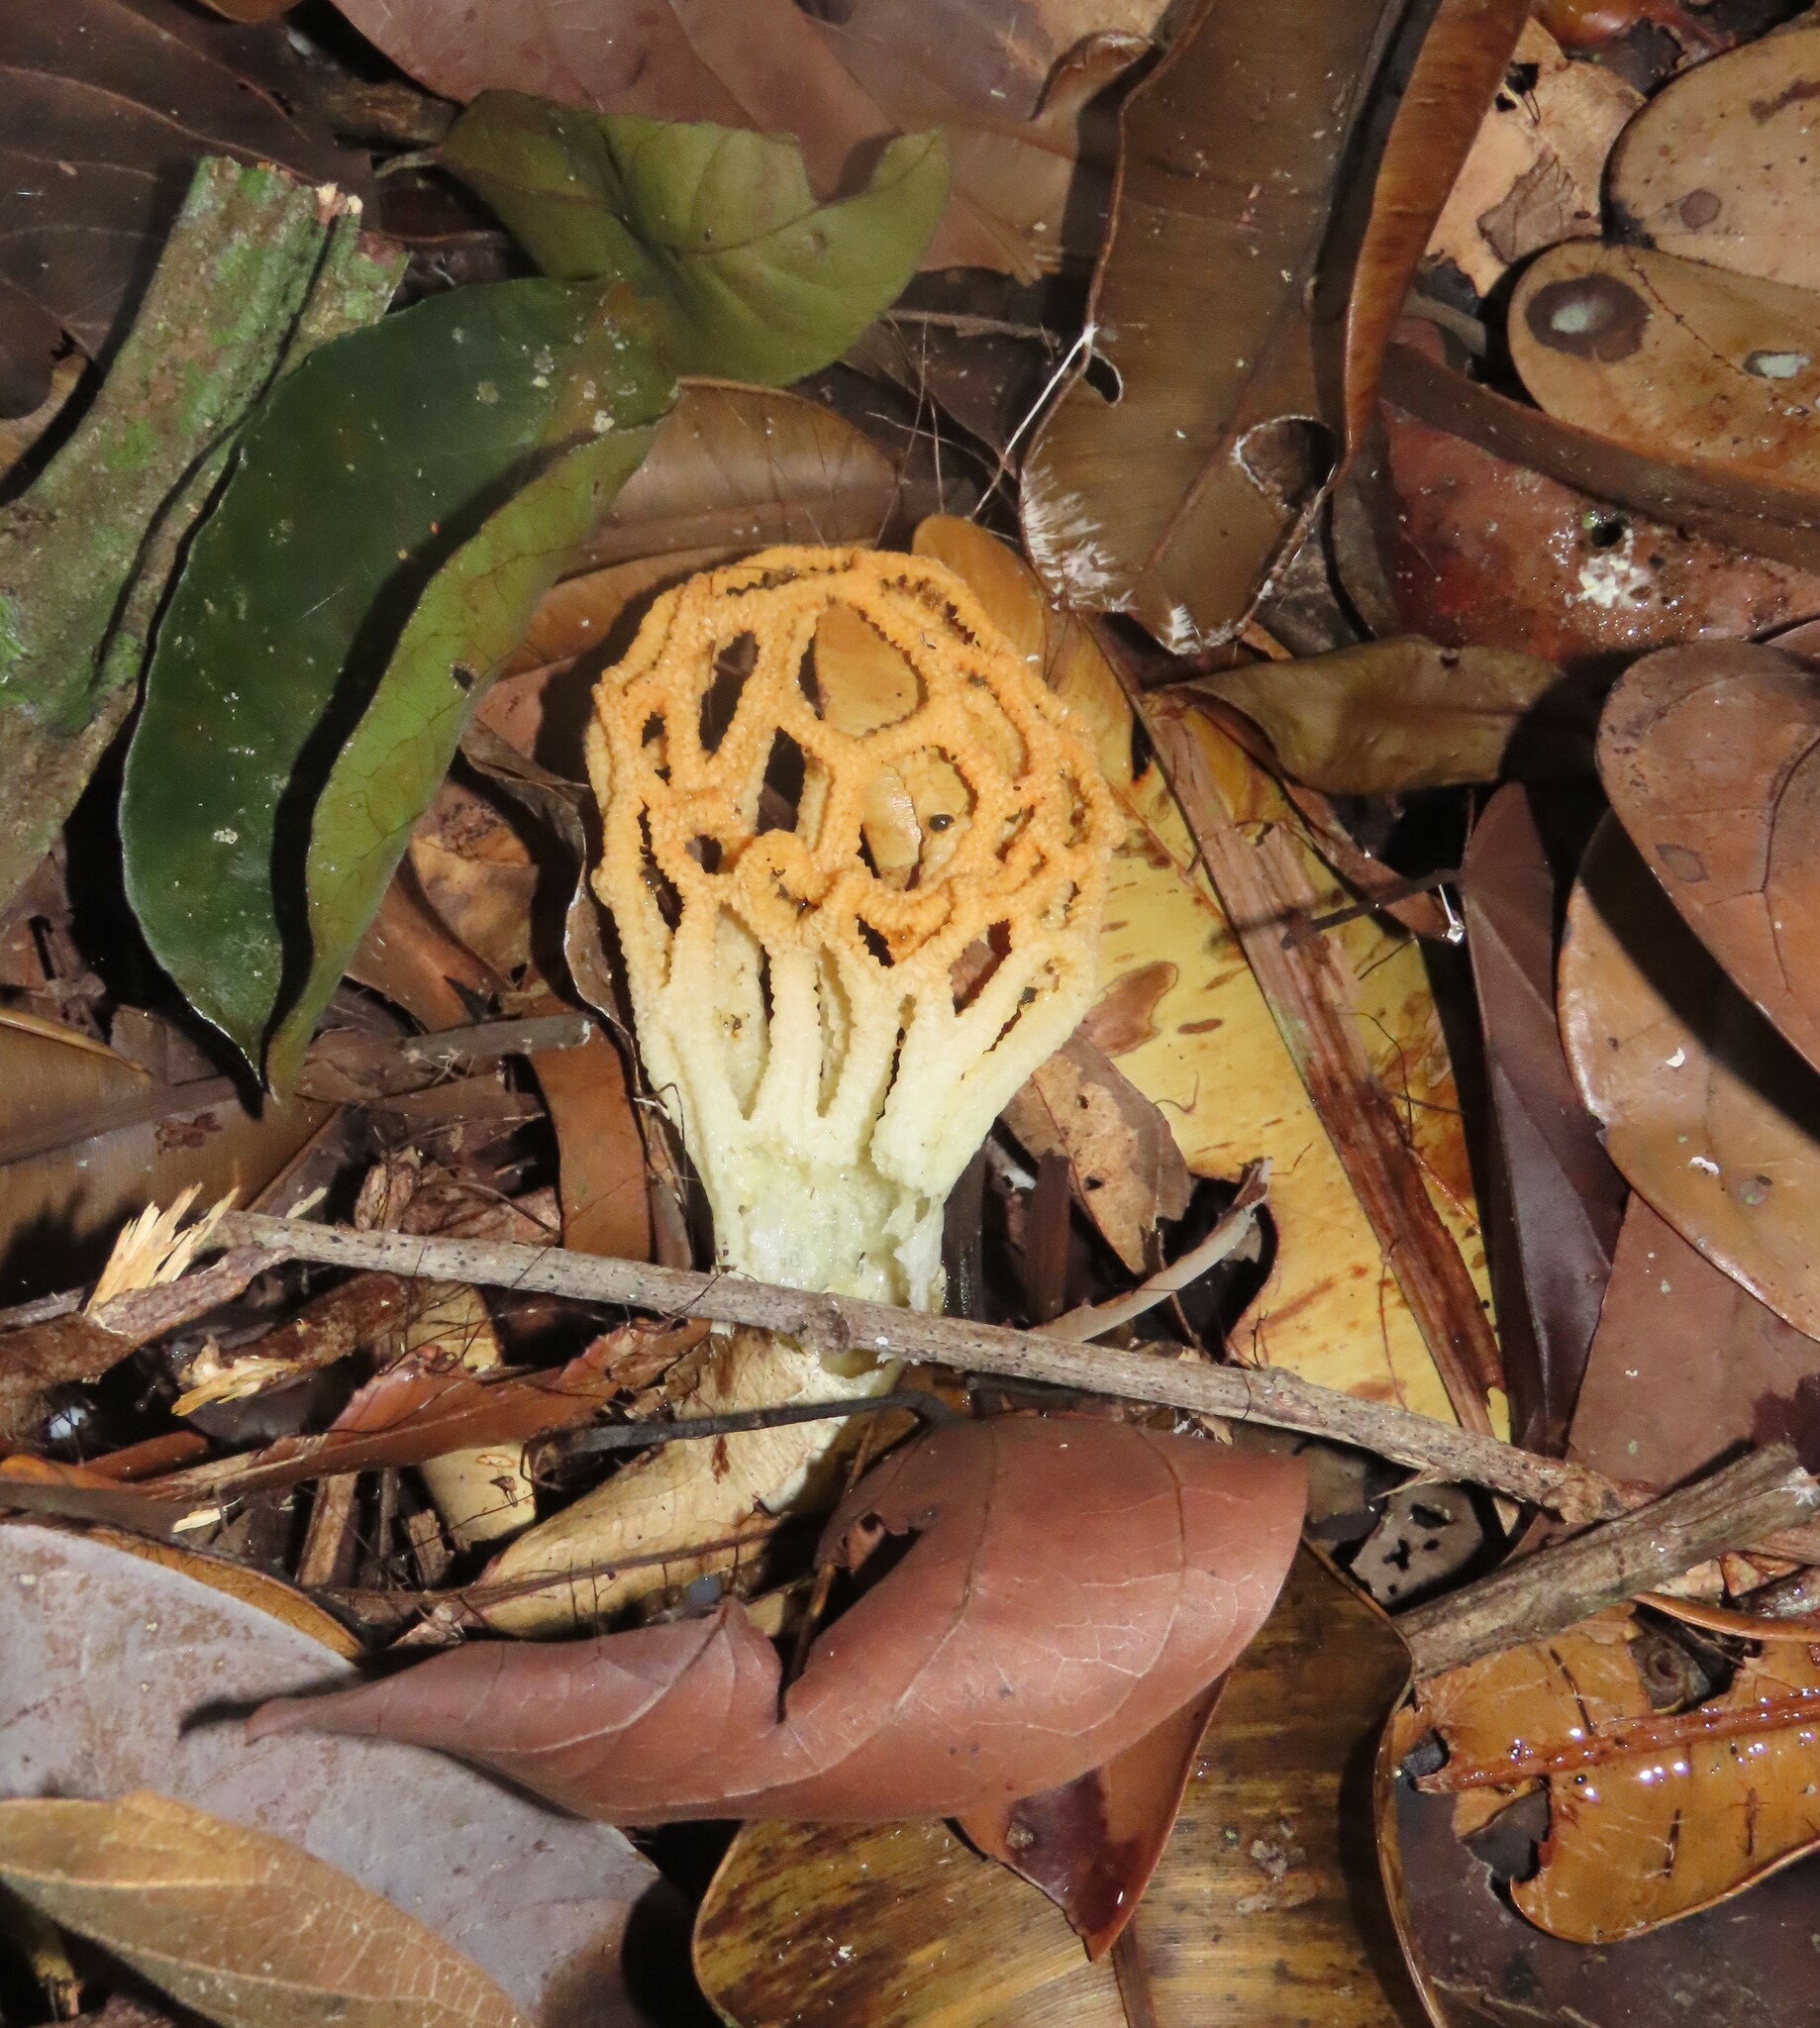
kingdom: Fungi
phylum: Basidiomycota
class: Agaricomycetes
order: Phallales
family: Phallaceae
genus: Clathrus
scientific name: Clathrus chrysomycelinus
